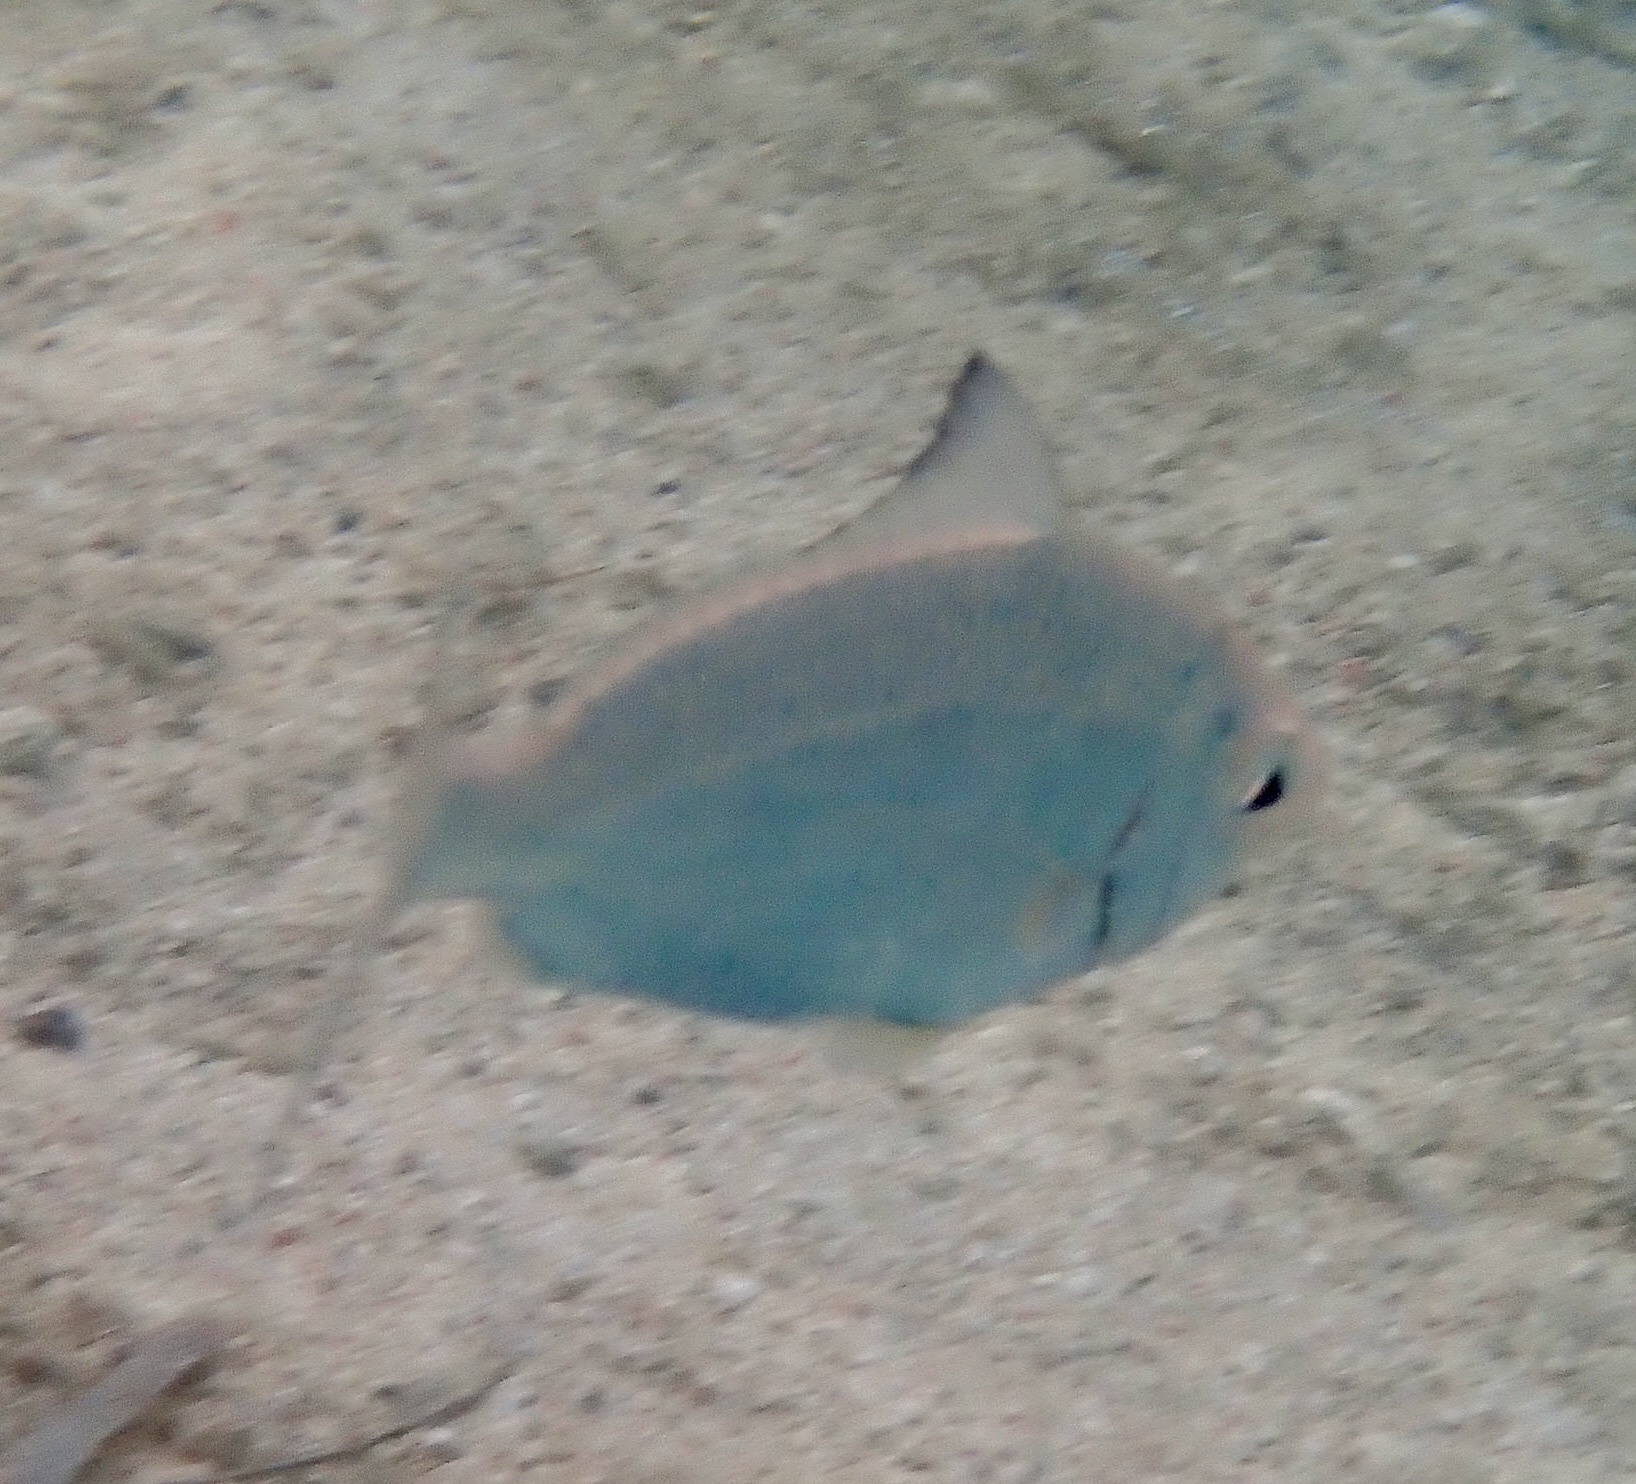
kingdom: Animalia
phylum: Chordata
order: Perciformes
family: Gerreidae
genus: Gerres
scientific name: Gerres oyena
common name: Common silver-biddy
